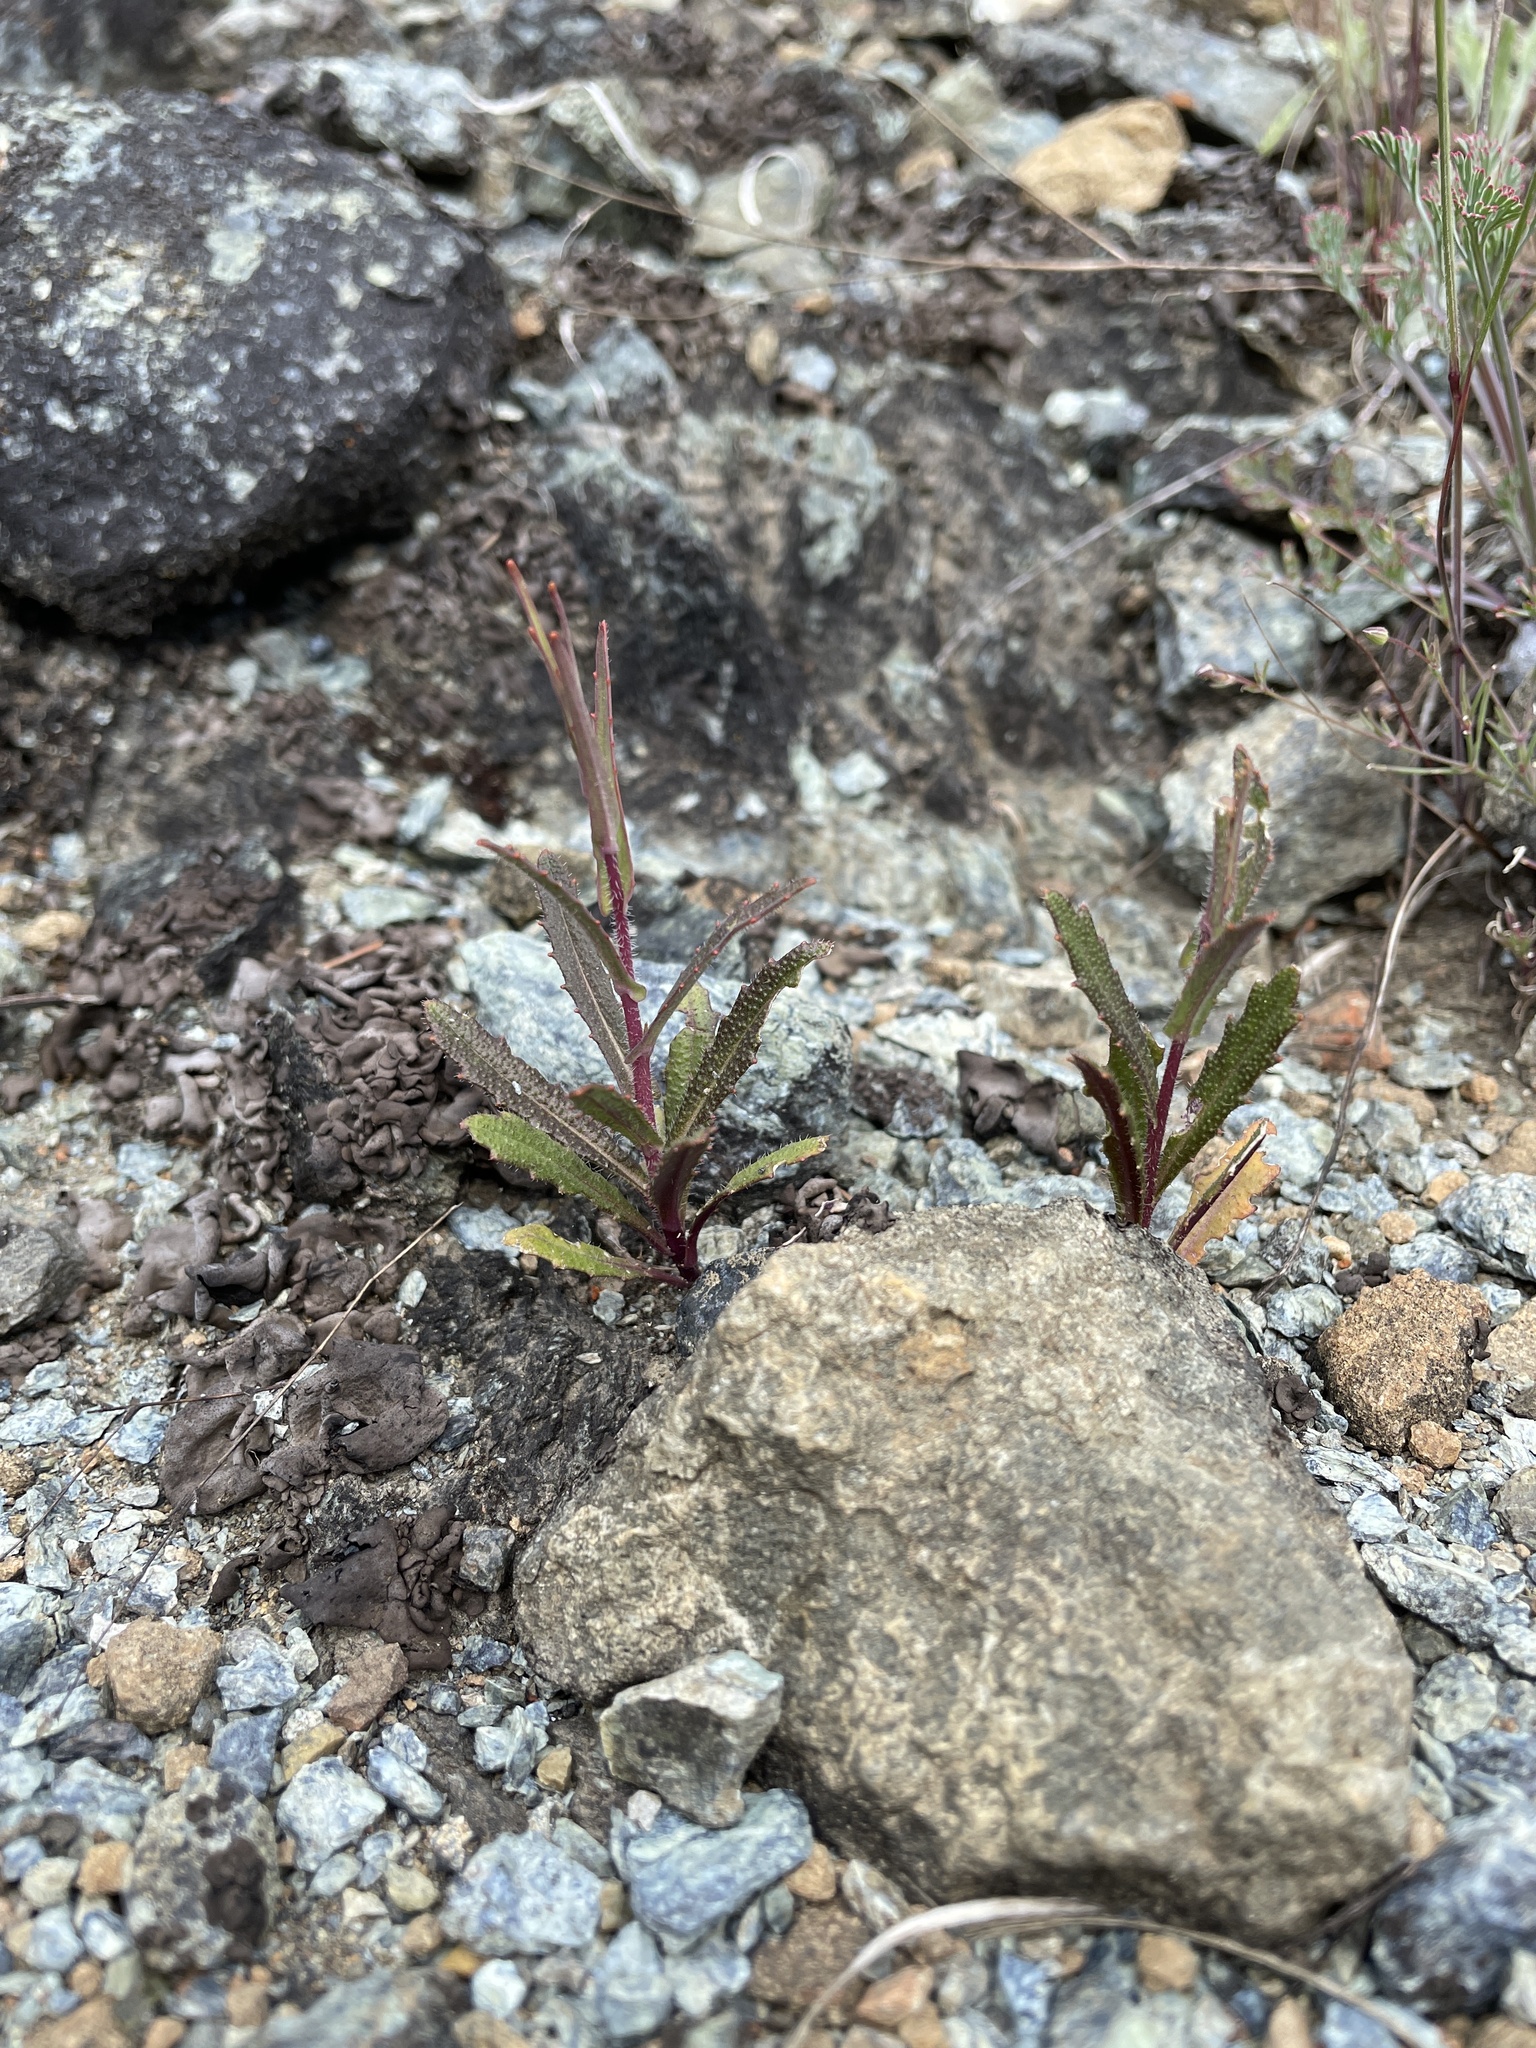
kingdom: Plantae
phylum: Tracheophyta
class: Magnoliopsida
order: Brassicales
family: Brassicaceae
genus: Streptanthus
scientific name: Streptanthus glandulosus
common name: Jewel-flower
